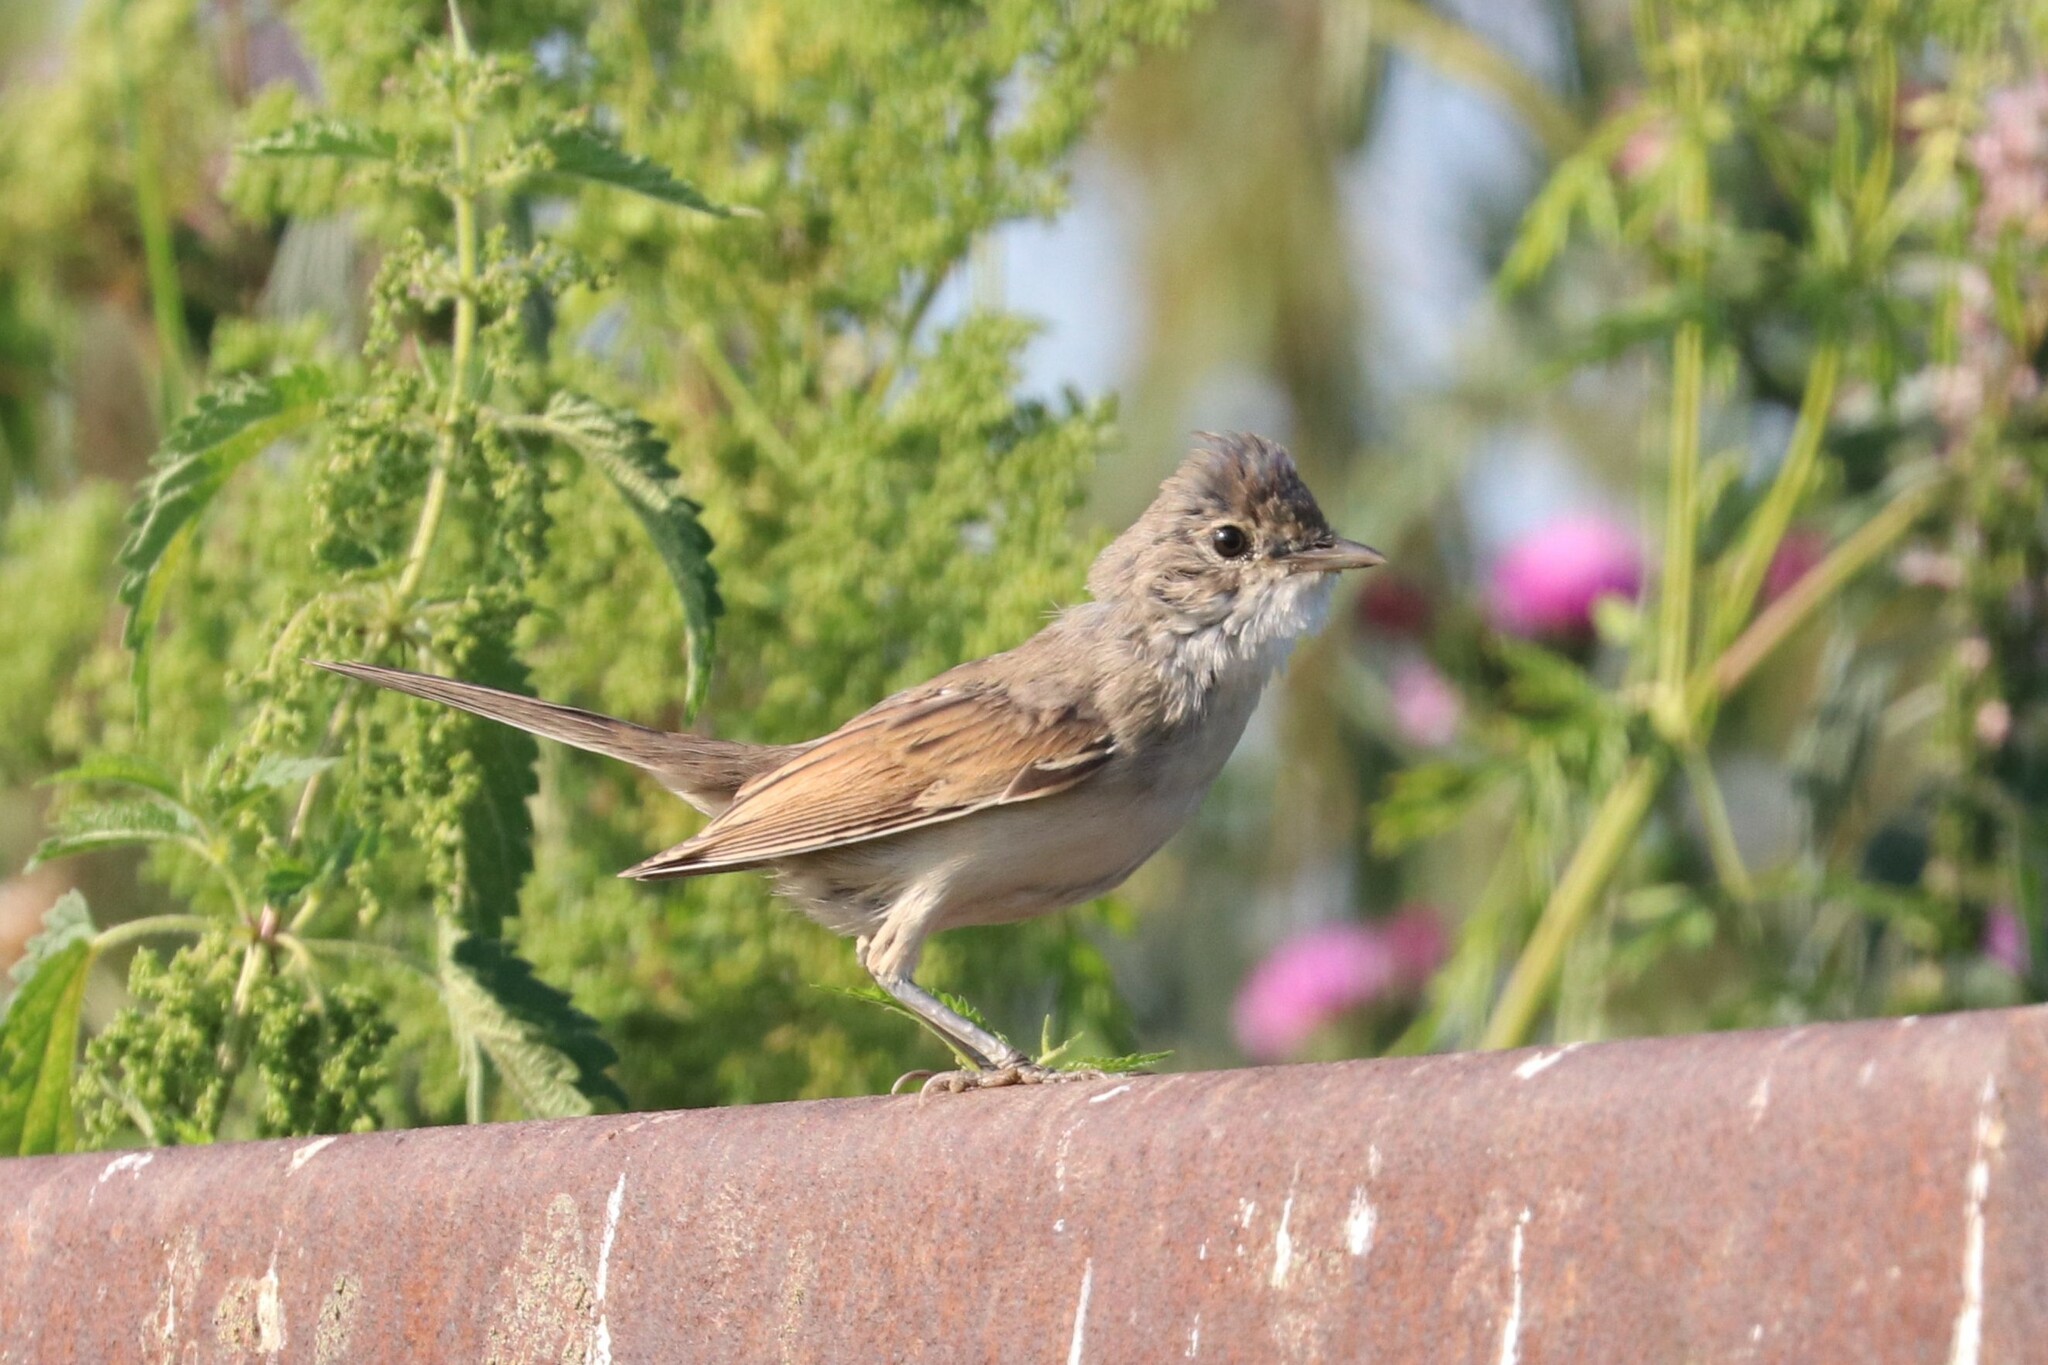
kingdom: Animalia
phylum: Chordata
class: Aves
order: Passeriformes
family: Sylviidae
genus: Sylvia
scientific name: Sylvia communis
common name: Common whitethroat
